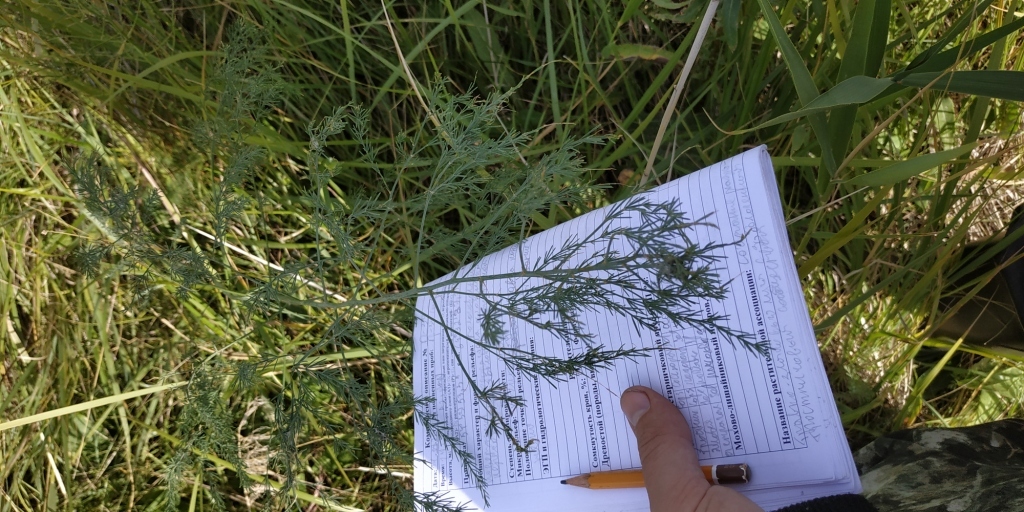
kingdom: Plantae
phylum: Tracheophyta
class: Liliopsida
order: Asparagales
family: Asparagaceae
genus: Asparagus
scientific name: Asparagus officinalis
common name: Garden asparagus
